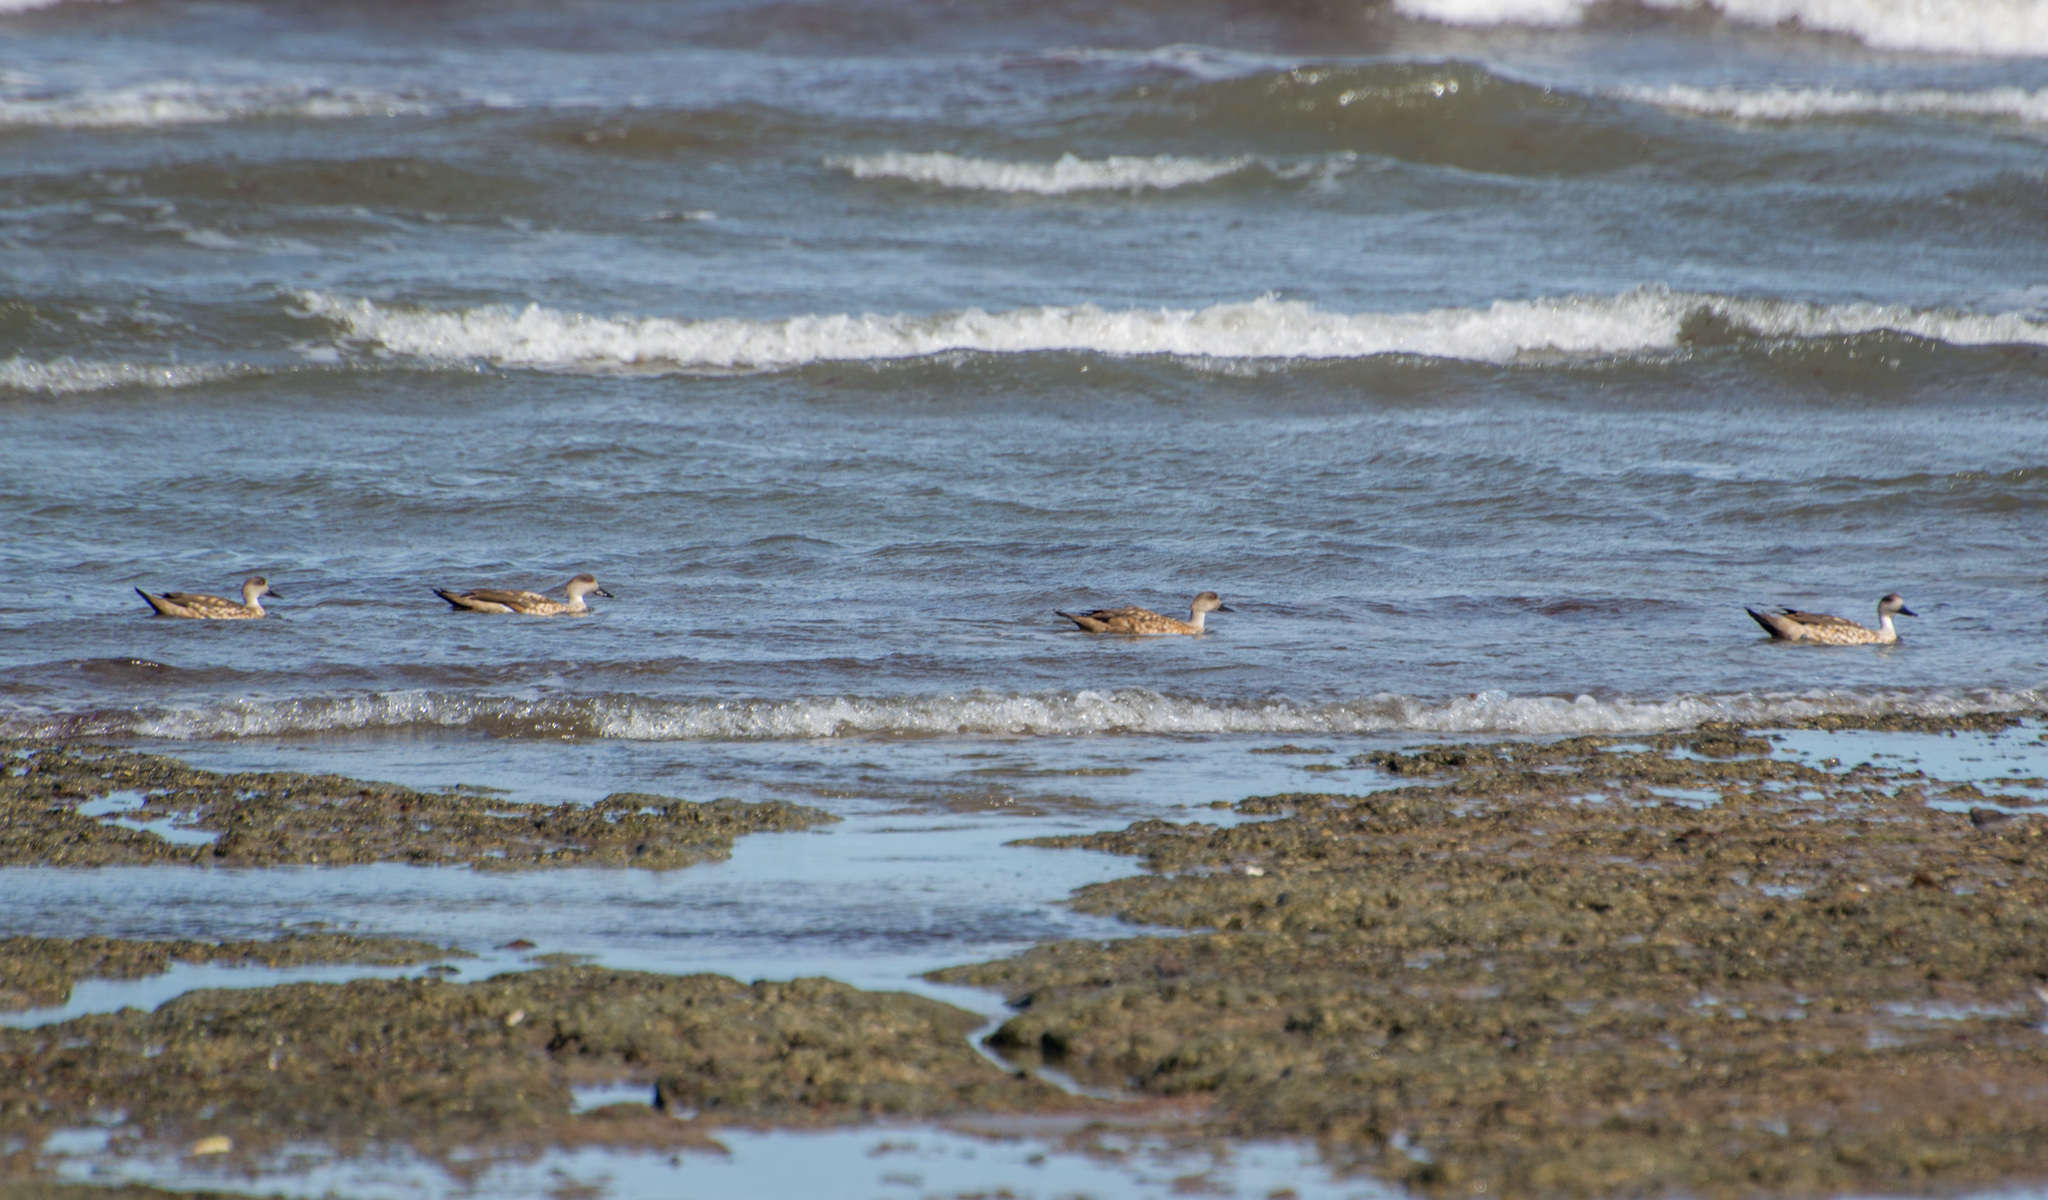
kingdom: Animalia
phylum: Chordata
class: Aves
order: Anseriformes
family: Anatidae
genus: Lophonetta
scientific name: Lophonetta specularioides
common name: Crested duck
